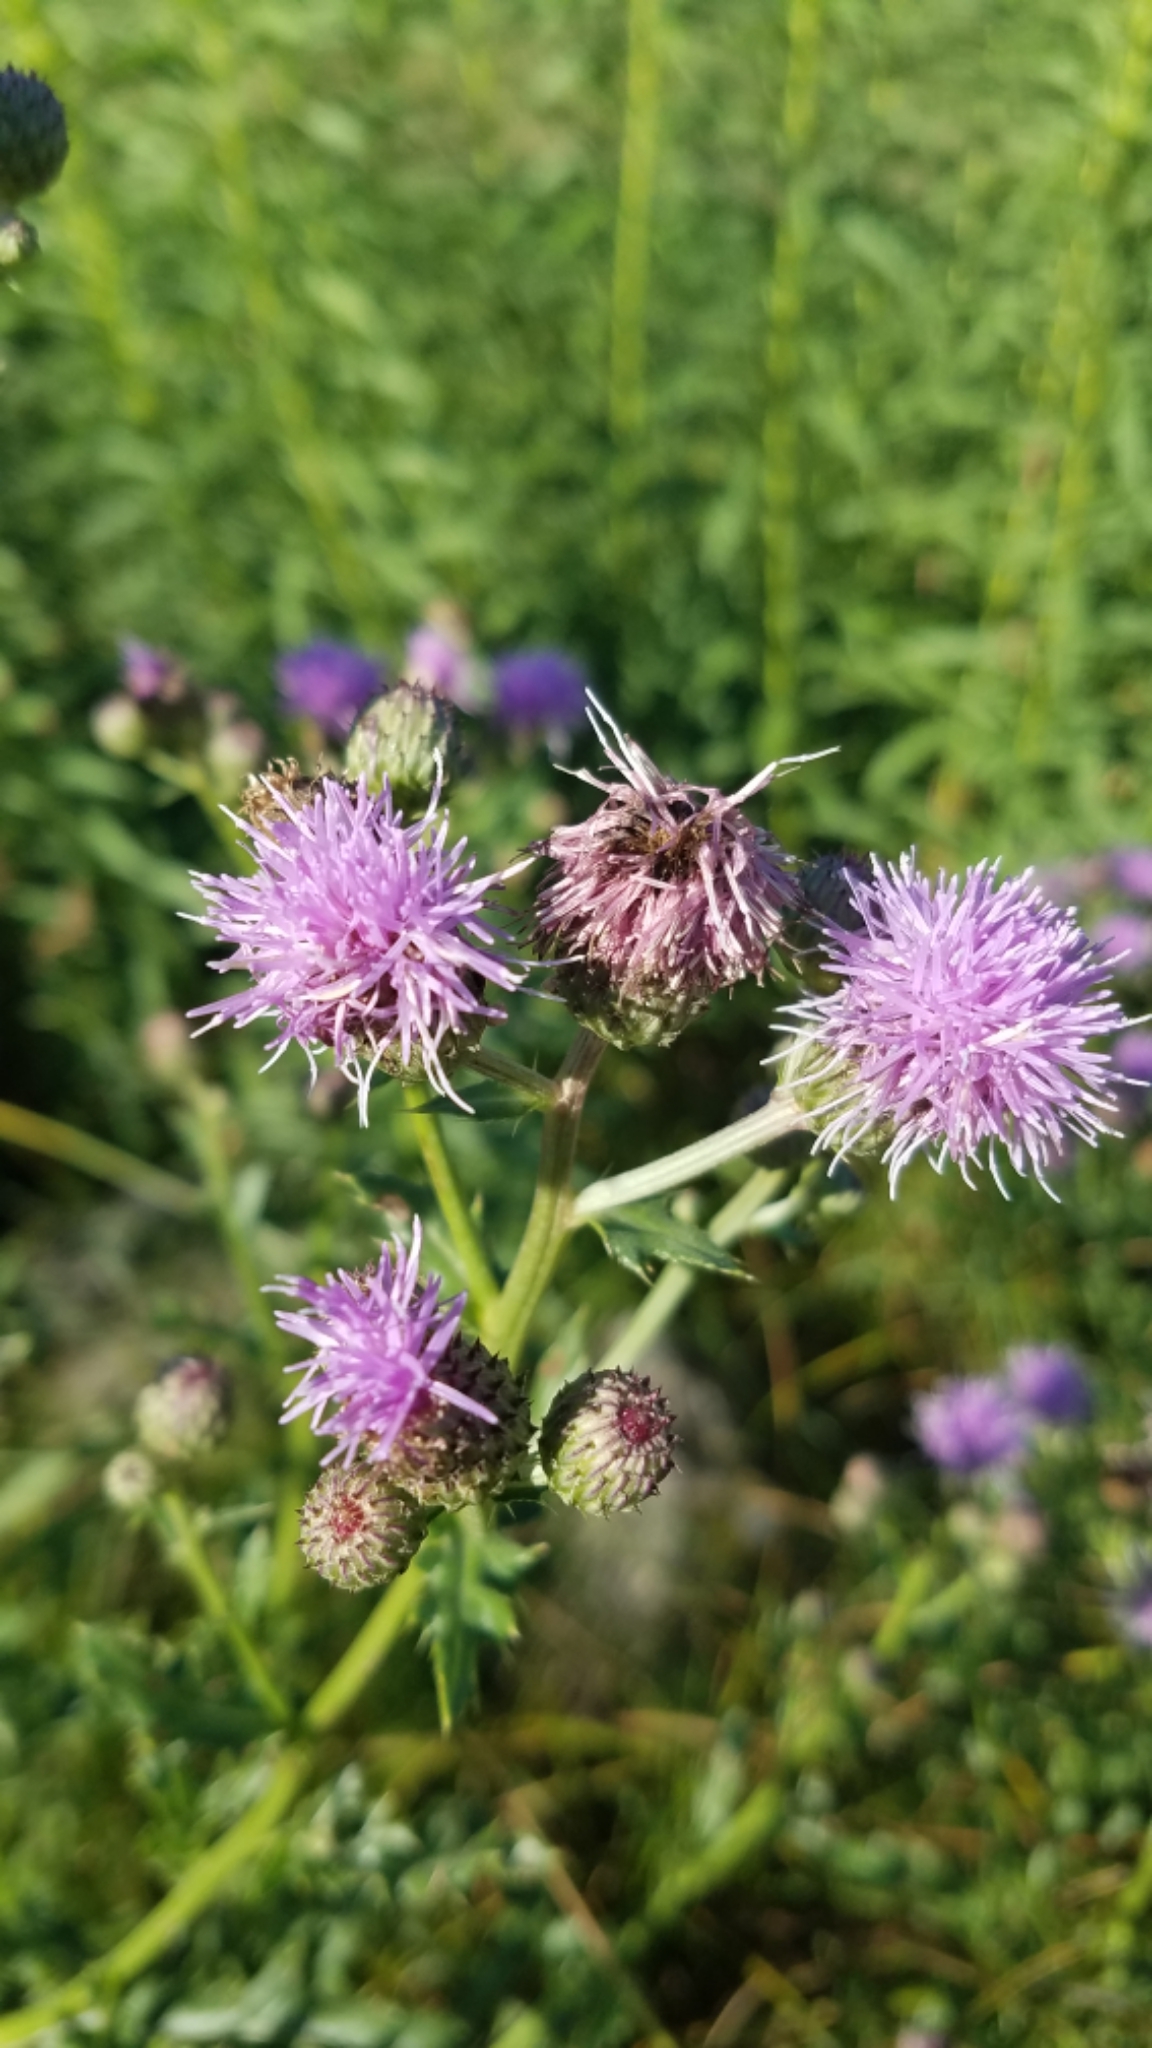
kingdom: Plantae
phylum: Tracheophyta
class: Magnoliopsida
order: Asterales
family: Asteraceae
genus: Centaurea
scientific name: Centaurea stoebe
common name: Spotted knapweed
